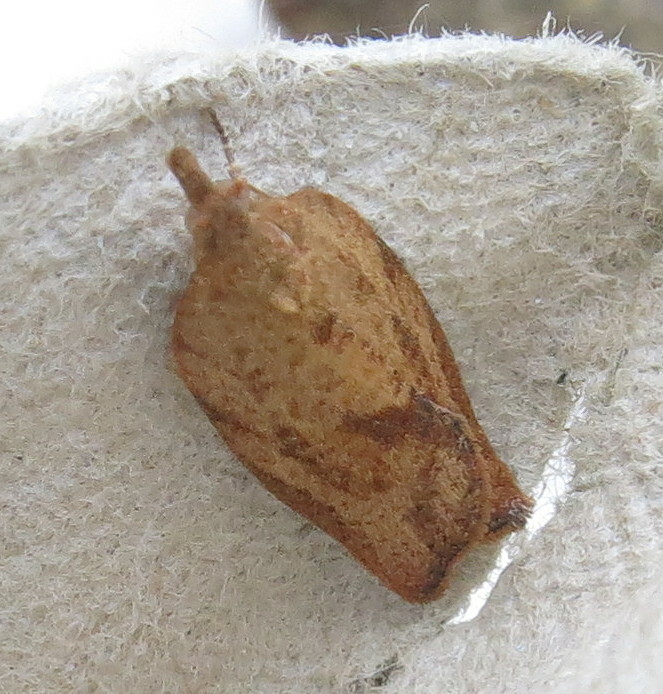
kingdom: Animalia
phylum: Arthropoda
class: Insecta
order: Lepidoptera
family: Tortricidae
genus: Epiphyas
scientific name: Epiphyas postvittana
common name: Light brown apple moth
